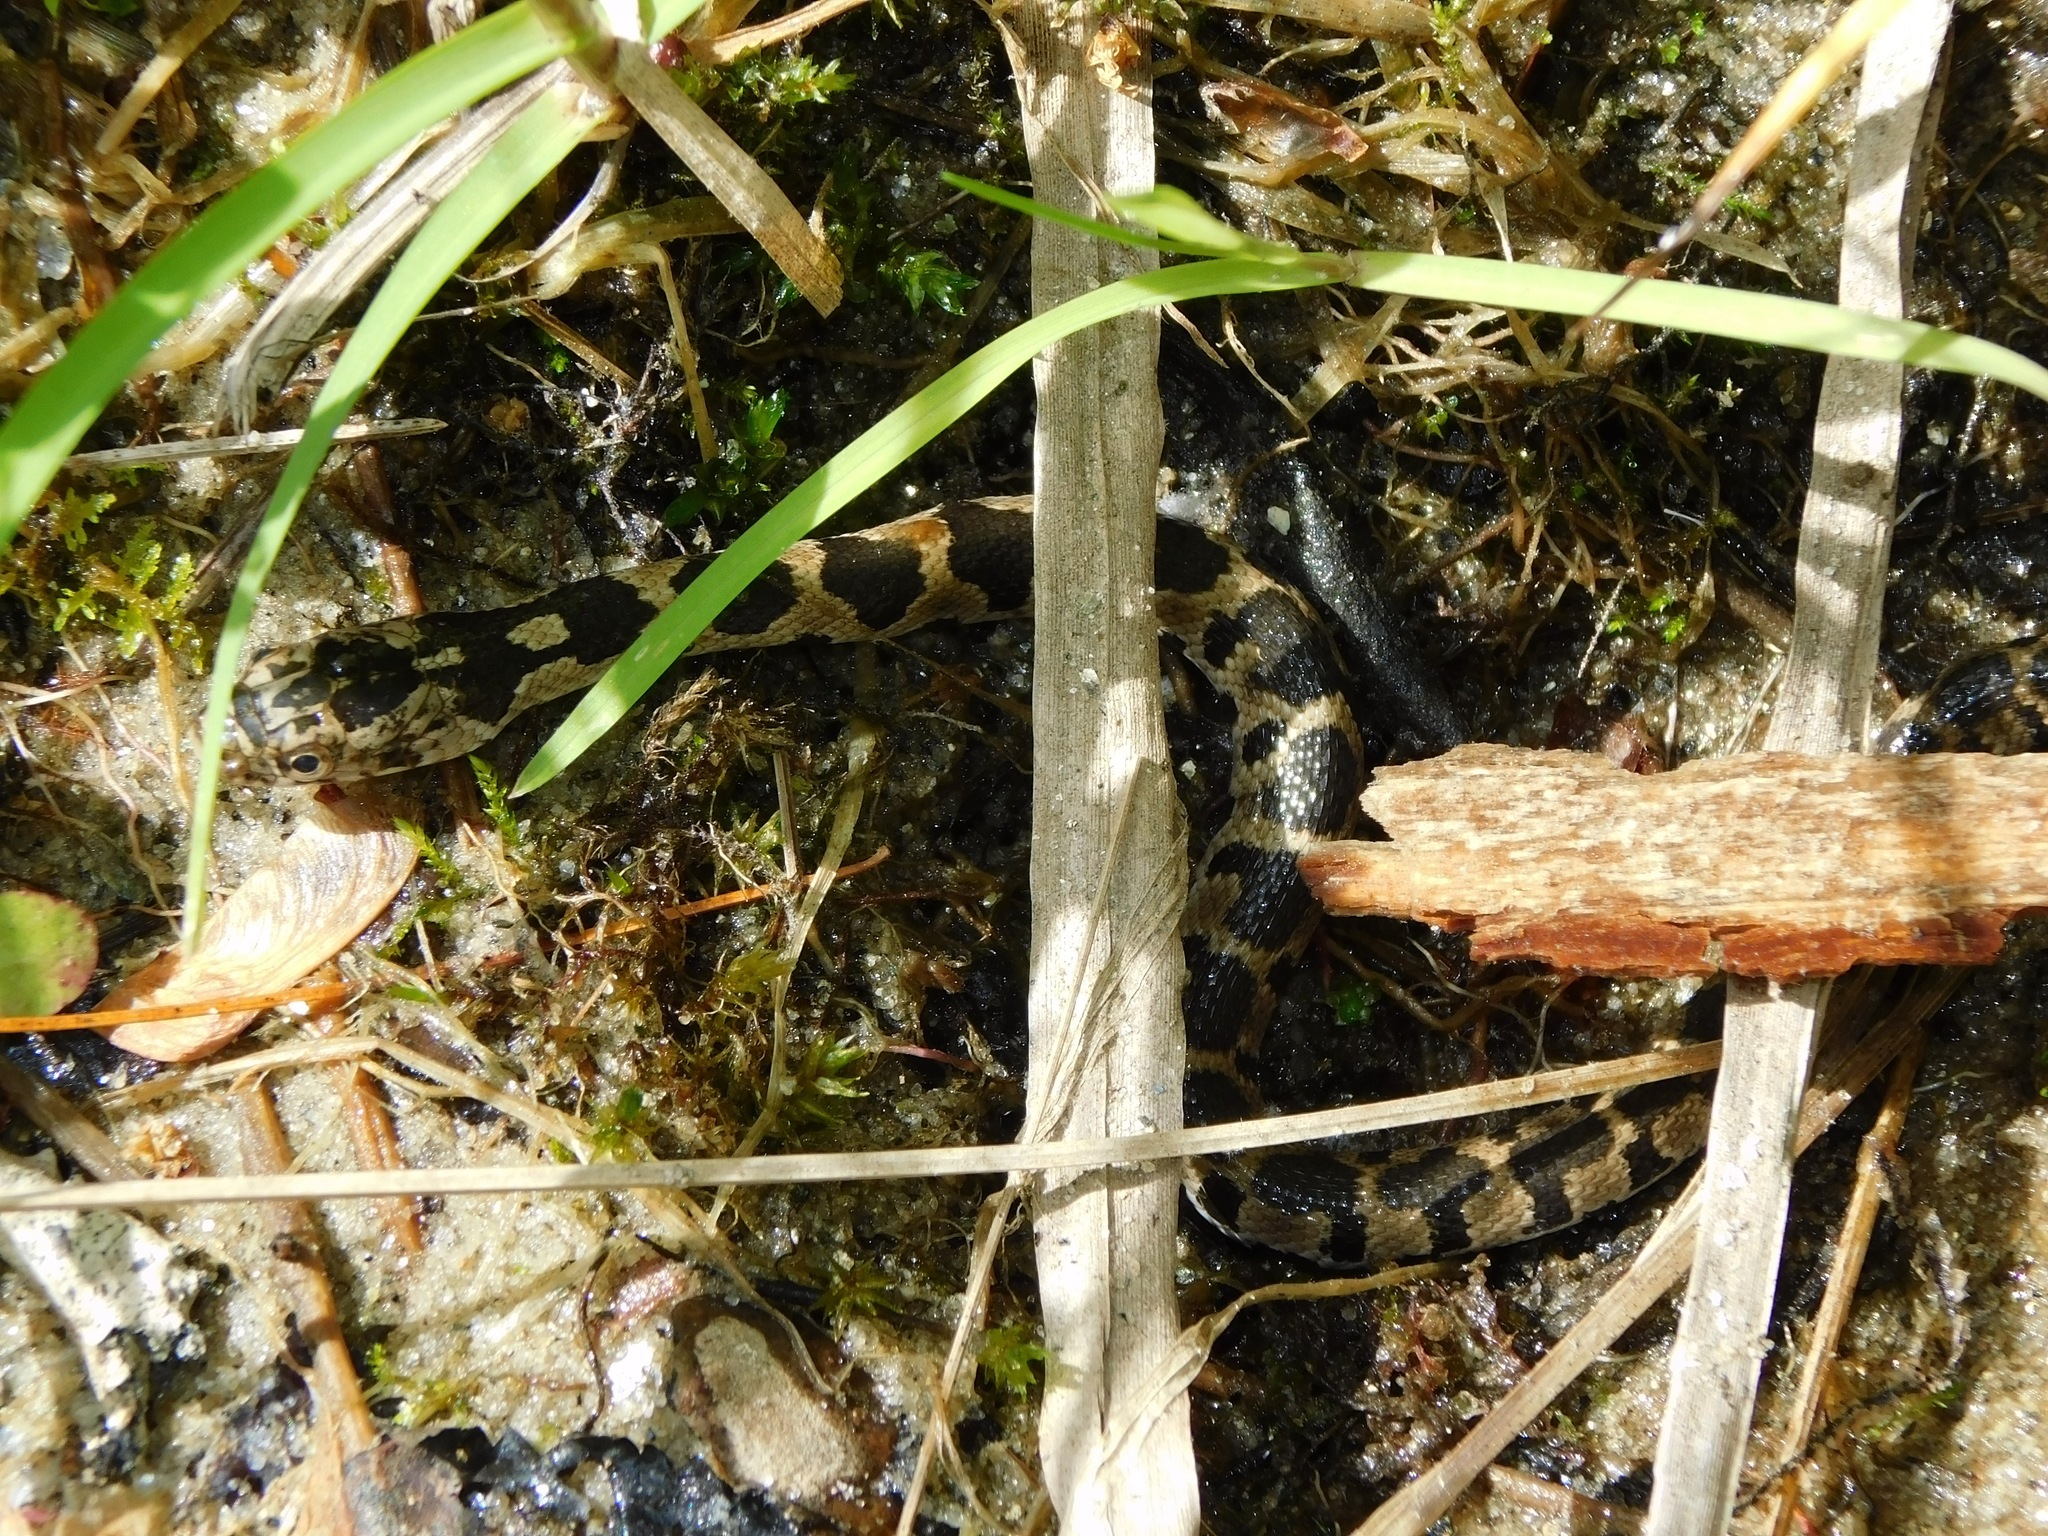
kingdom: Animalia
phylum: Chordata
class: Squamata
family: Colubridae
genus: Nerodia
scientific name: Nerodia sipedon
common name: Northern water snake
